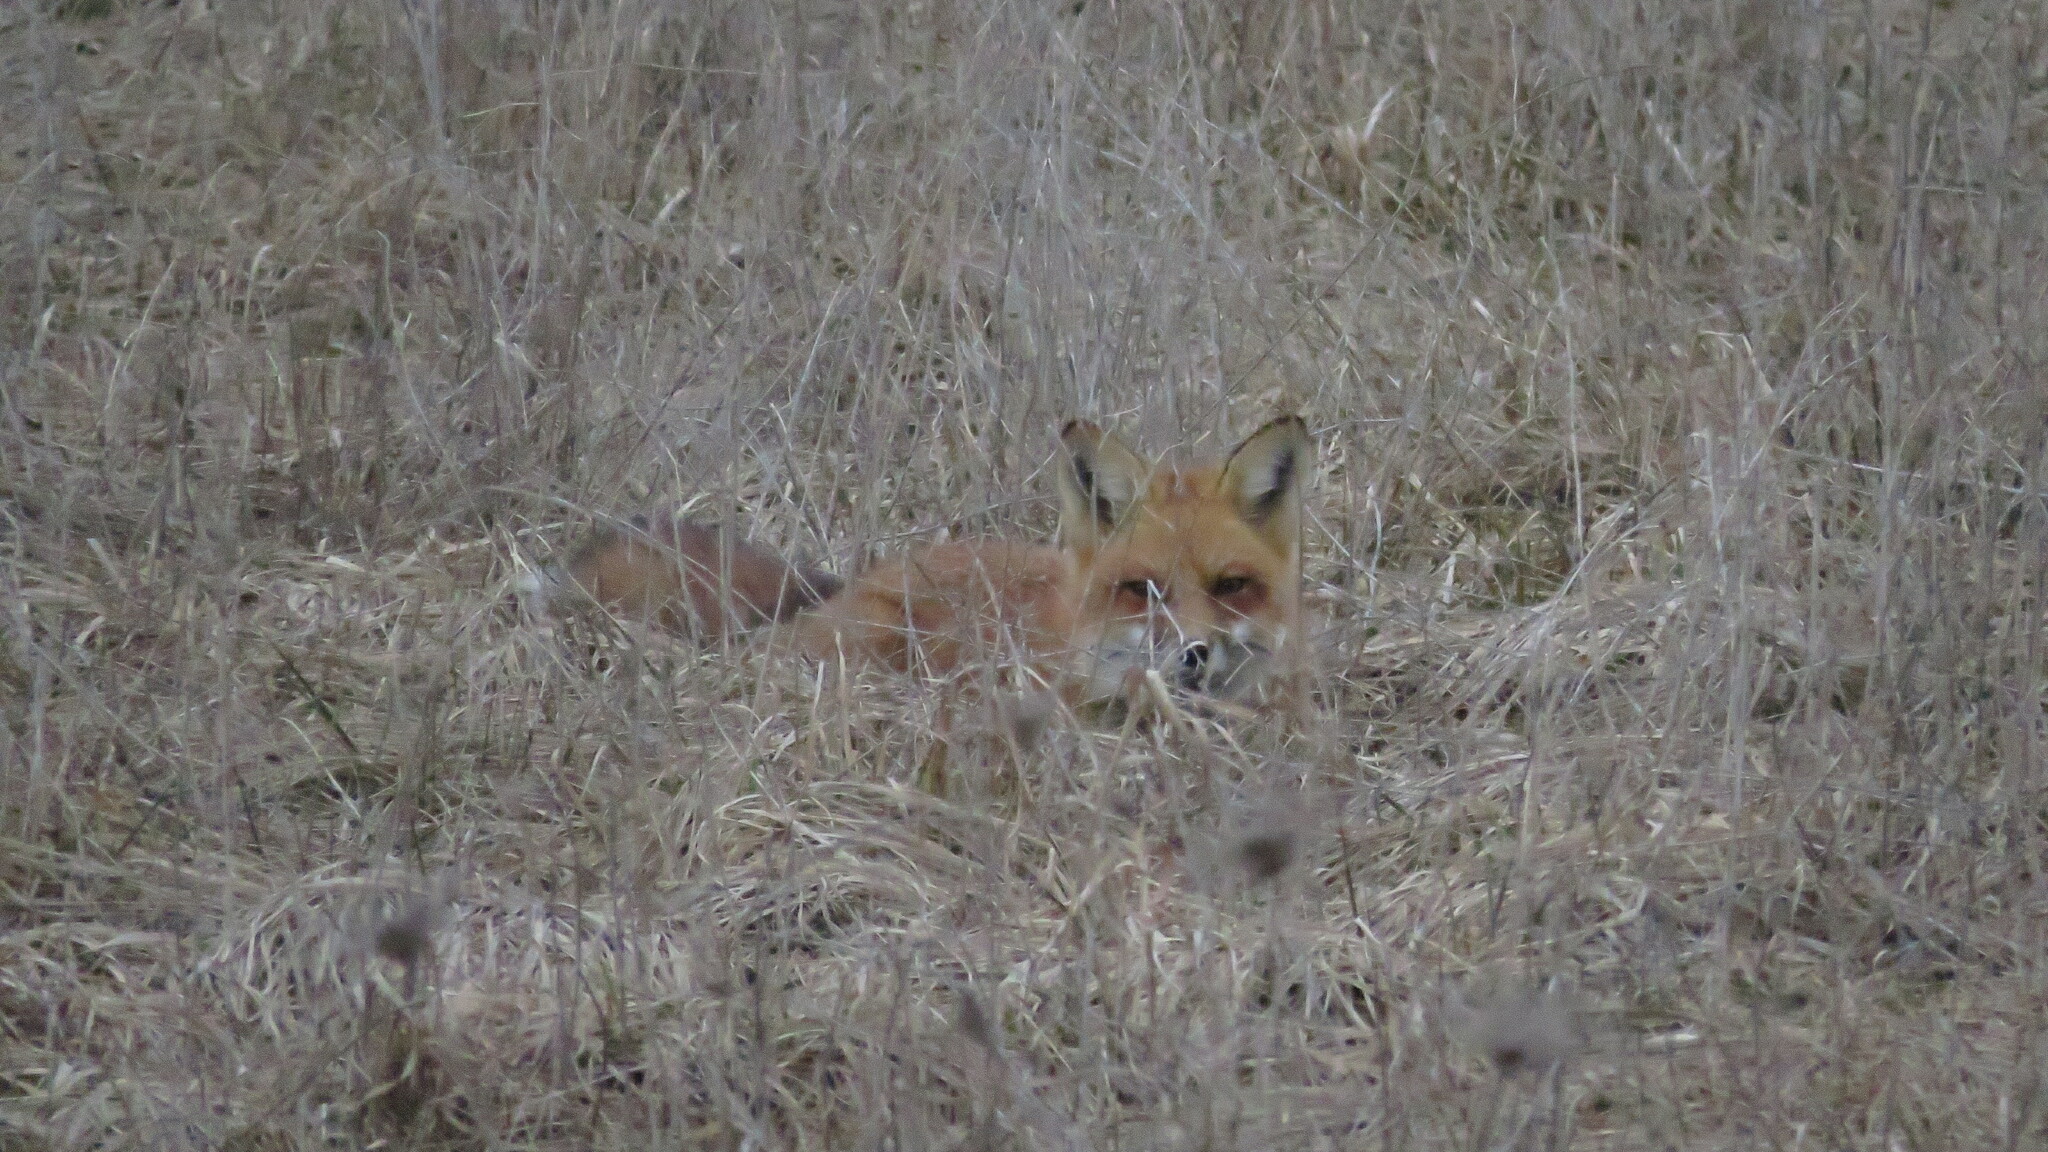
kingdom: Animalia
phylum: Chordata
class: Mammalia
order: Carnivora
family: Canidae
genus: Vulpes
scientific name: Vulpes vulpes
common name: Red fox
